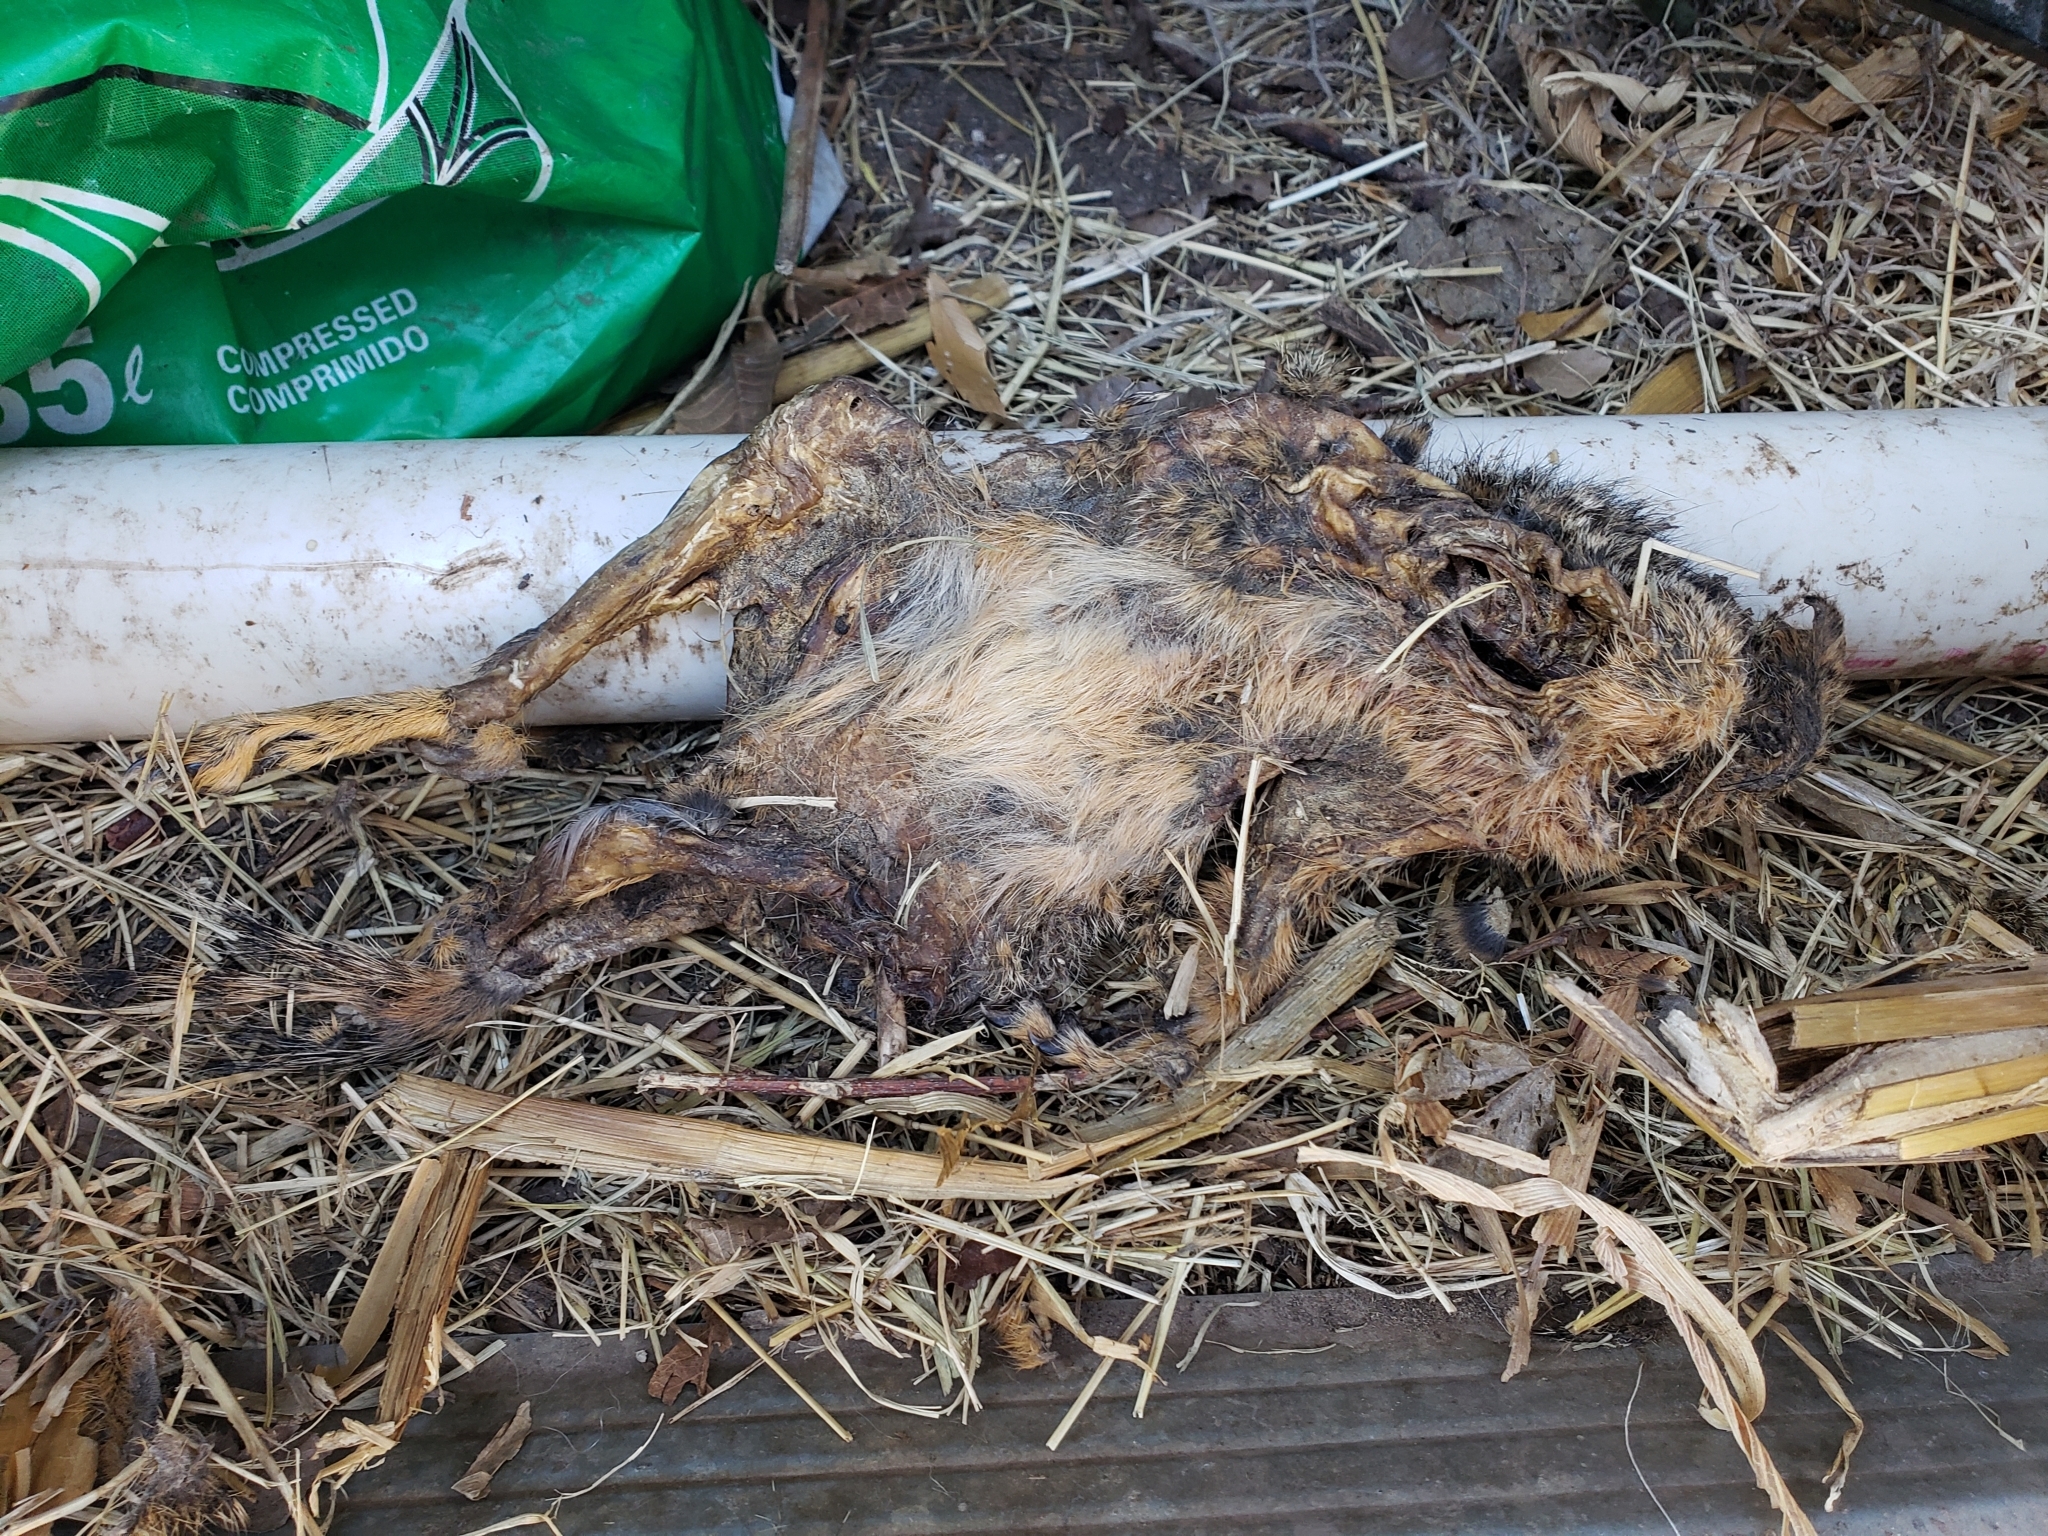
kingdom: Animalia
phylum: Chordata
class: Mammalia
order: Rodentia
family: Sciuridae
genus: Sciurus
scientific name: Sciurus niger
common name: Fox squirrel
